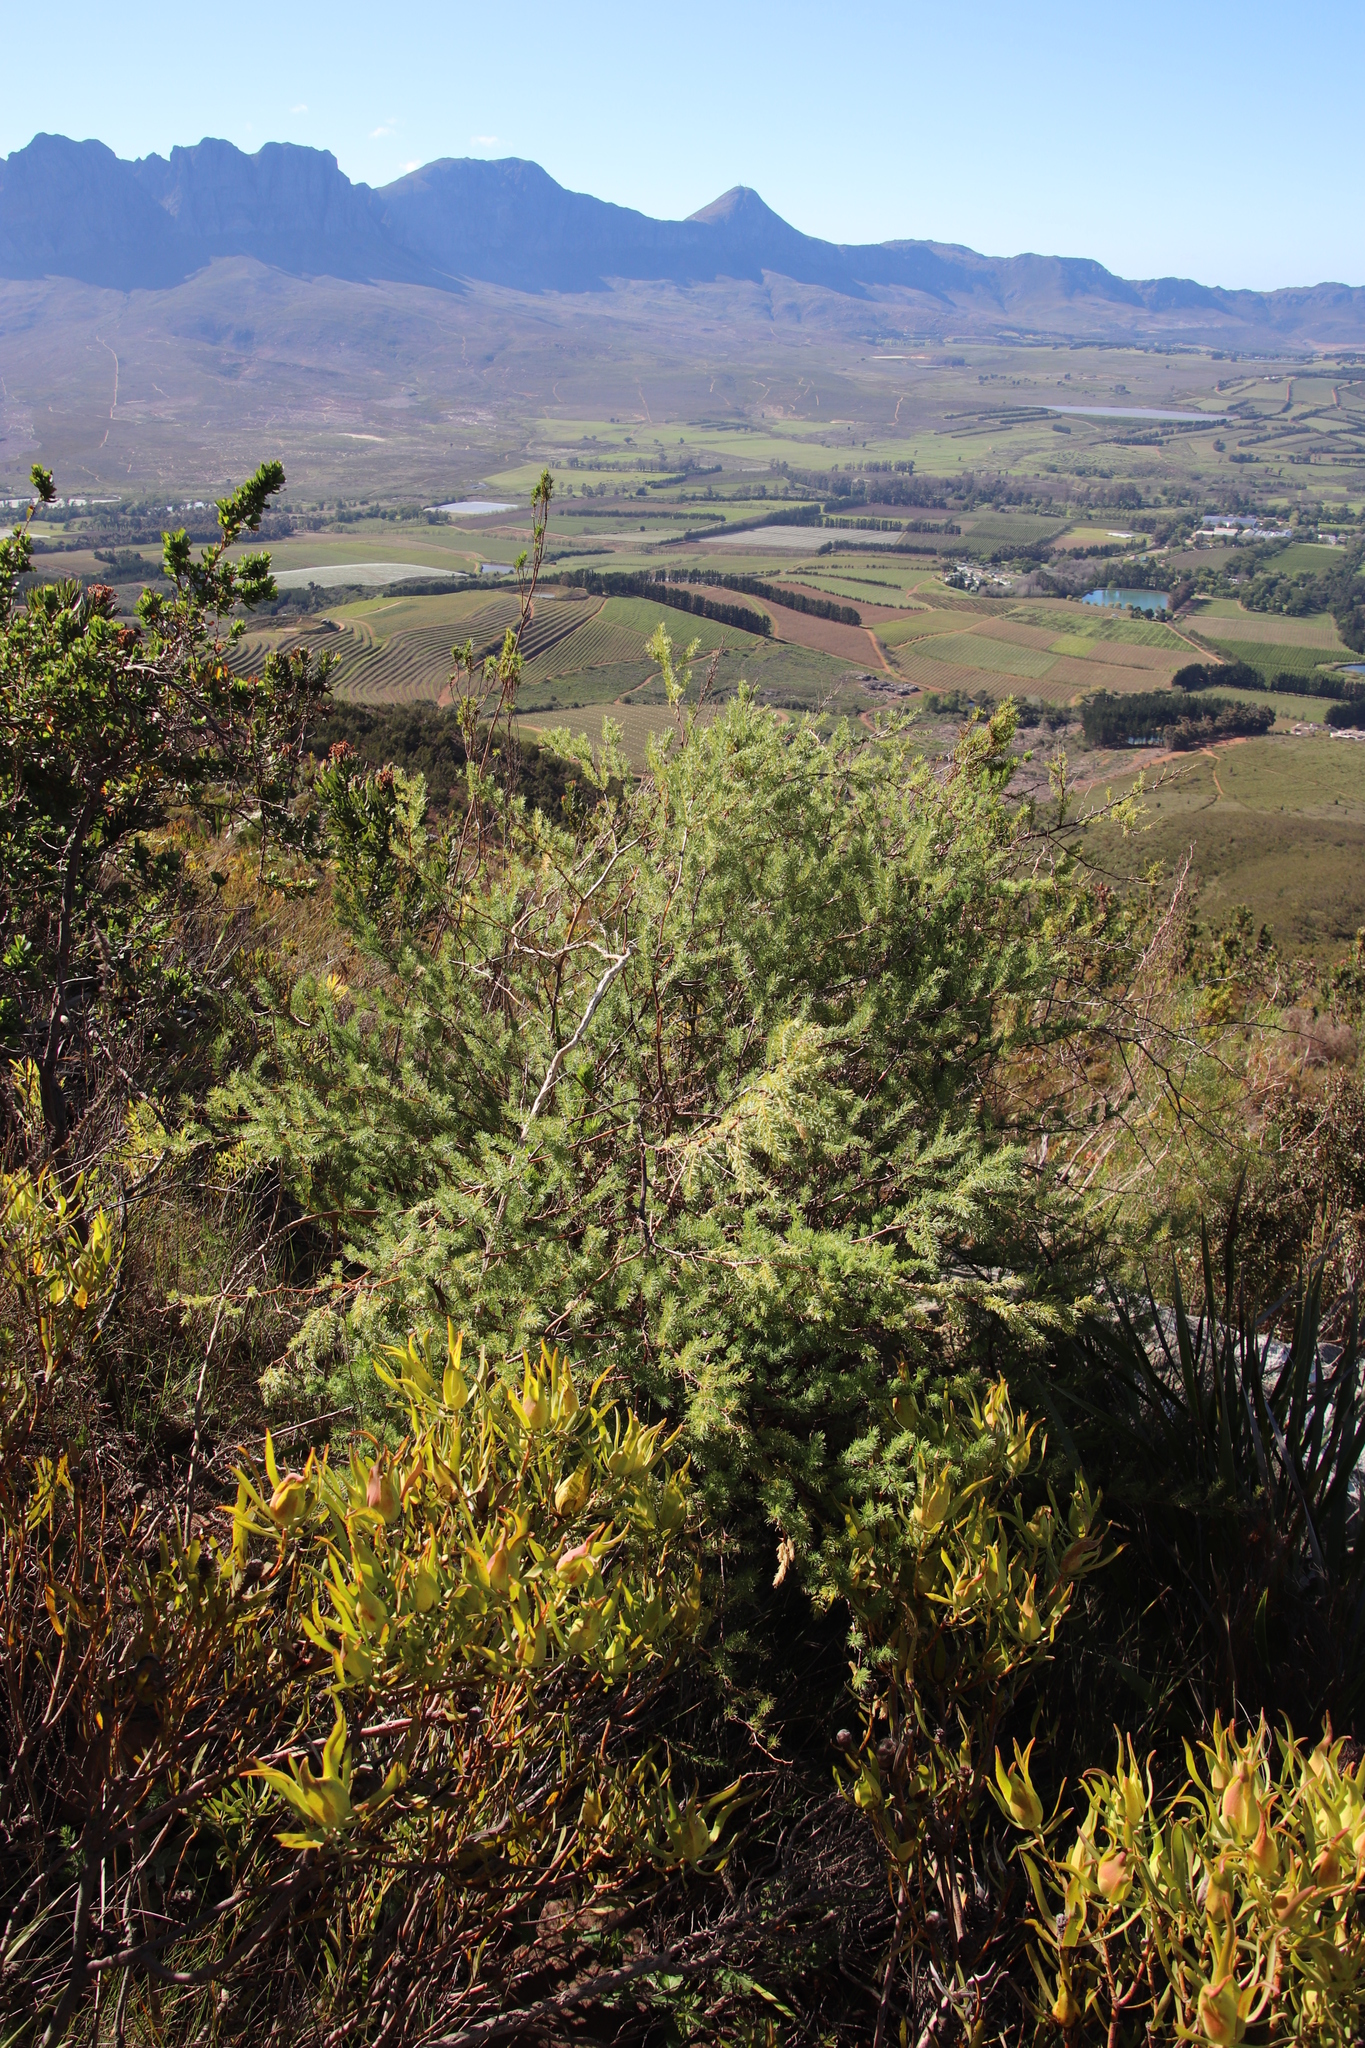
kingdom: Plantae
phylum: Tracheophyta
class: Liliopsida
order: Asparagales
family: Asparagaceae
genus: Asparagus
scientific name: Asparagus rubicundus
